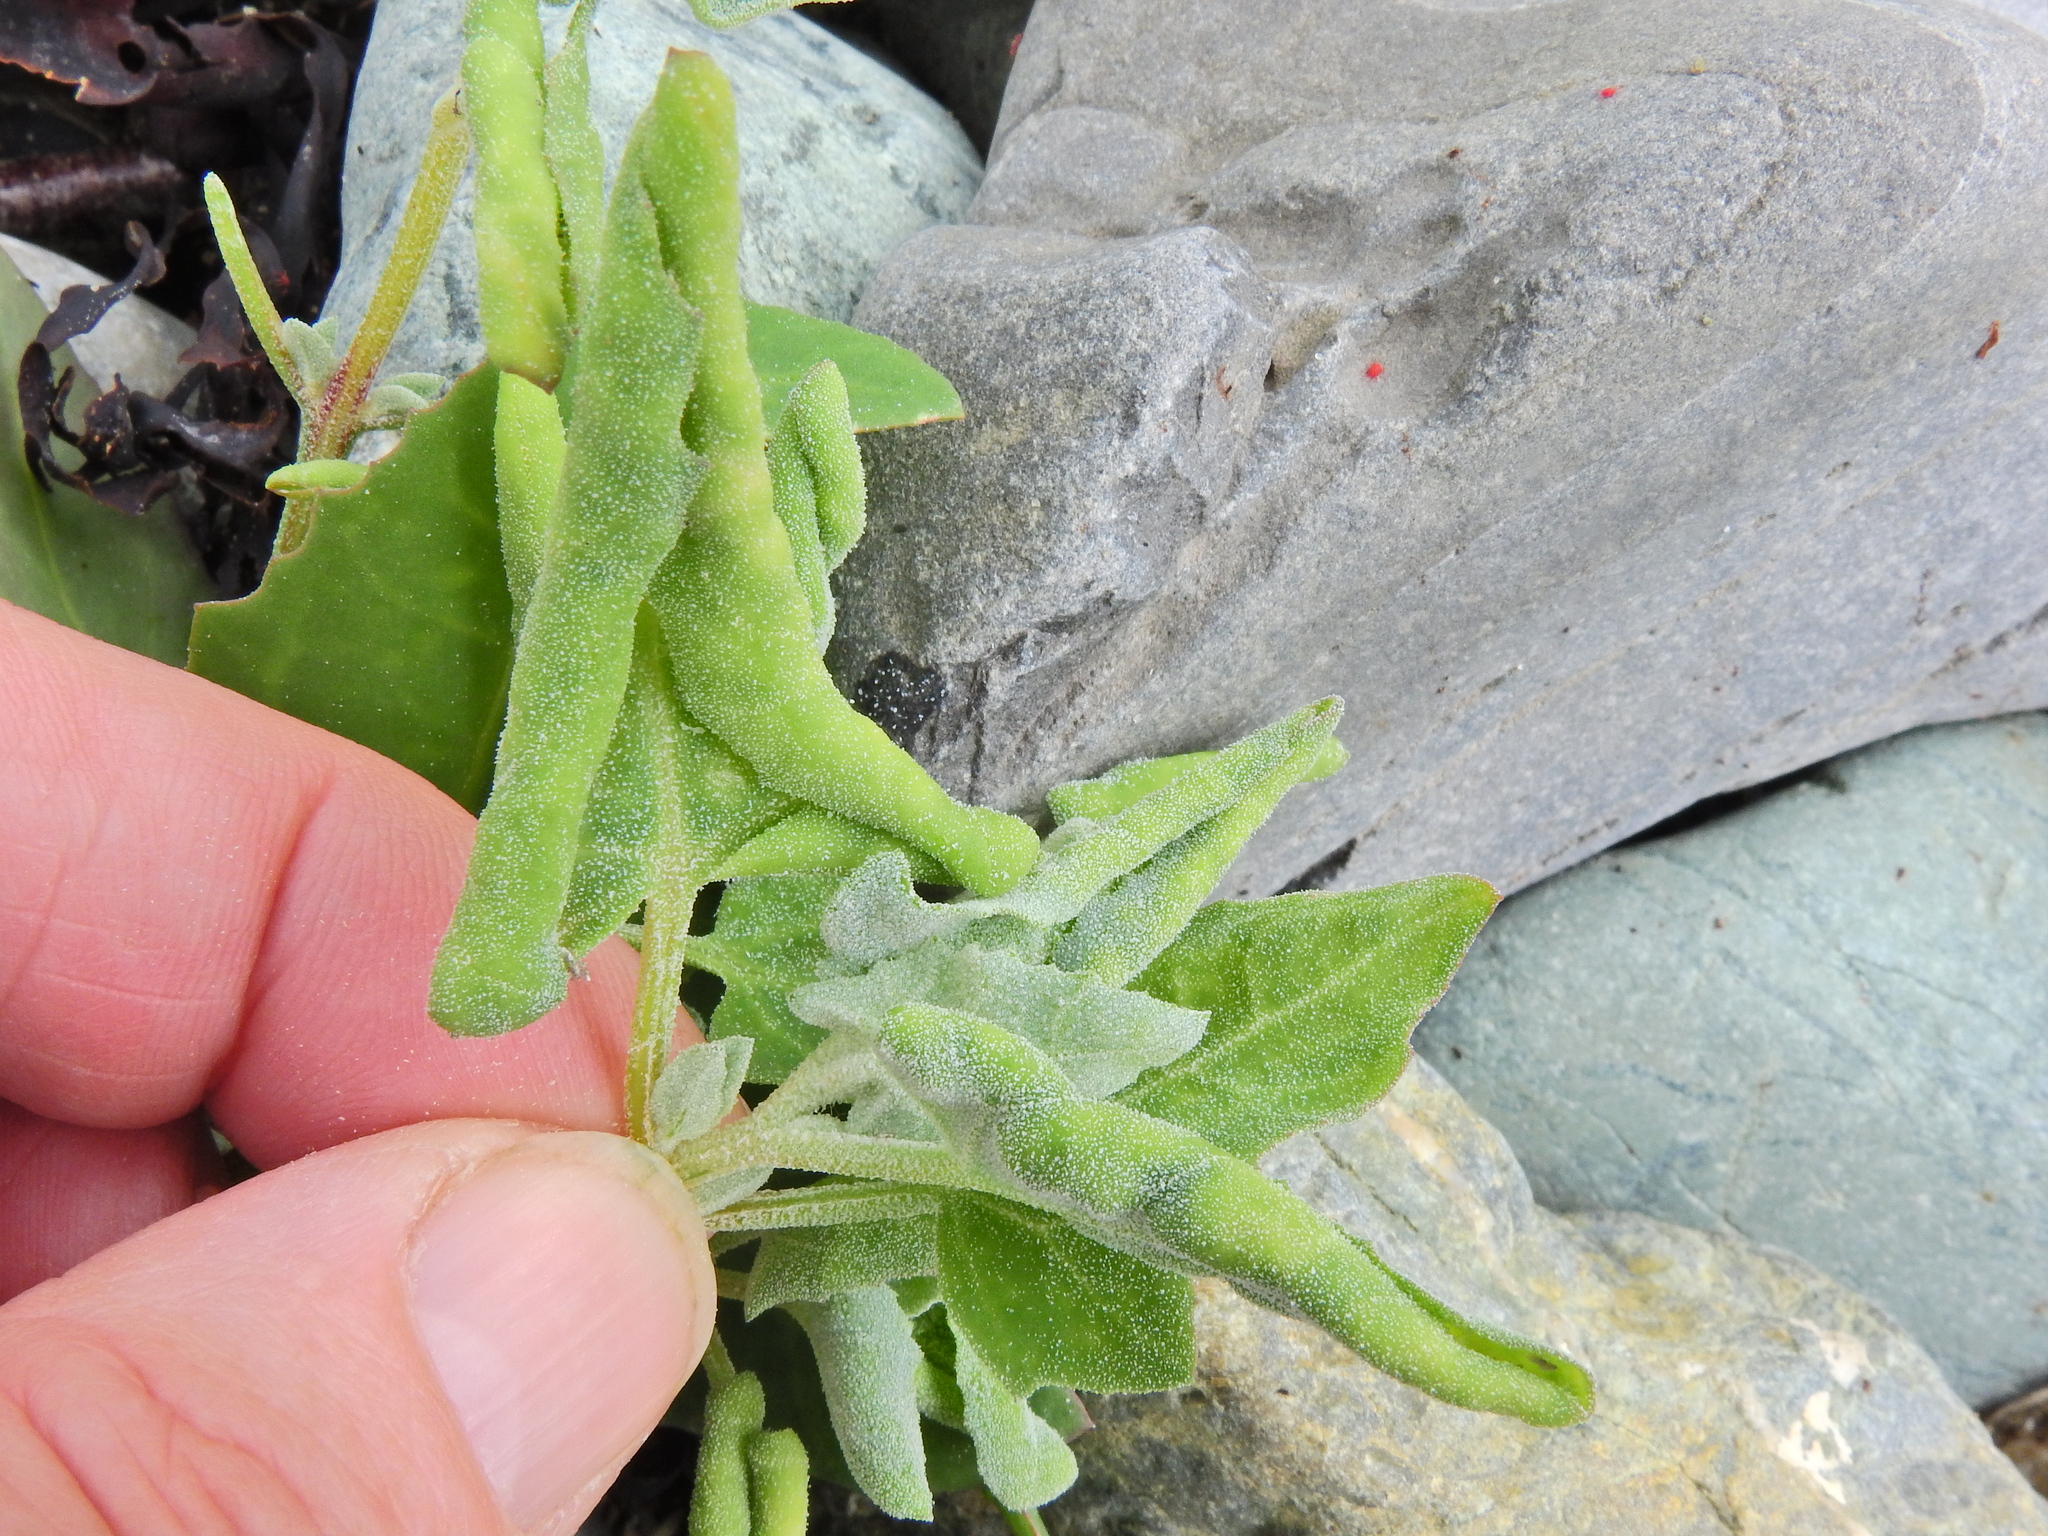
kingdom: Animalia
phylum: Arthropoda
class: Insecta
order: Hemiptera
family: Aphididae
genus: Hayhurstia
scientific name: Hayhurstia atriplicis
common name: Chenopodium aphid
